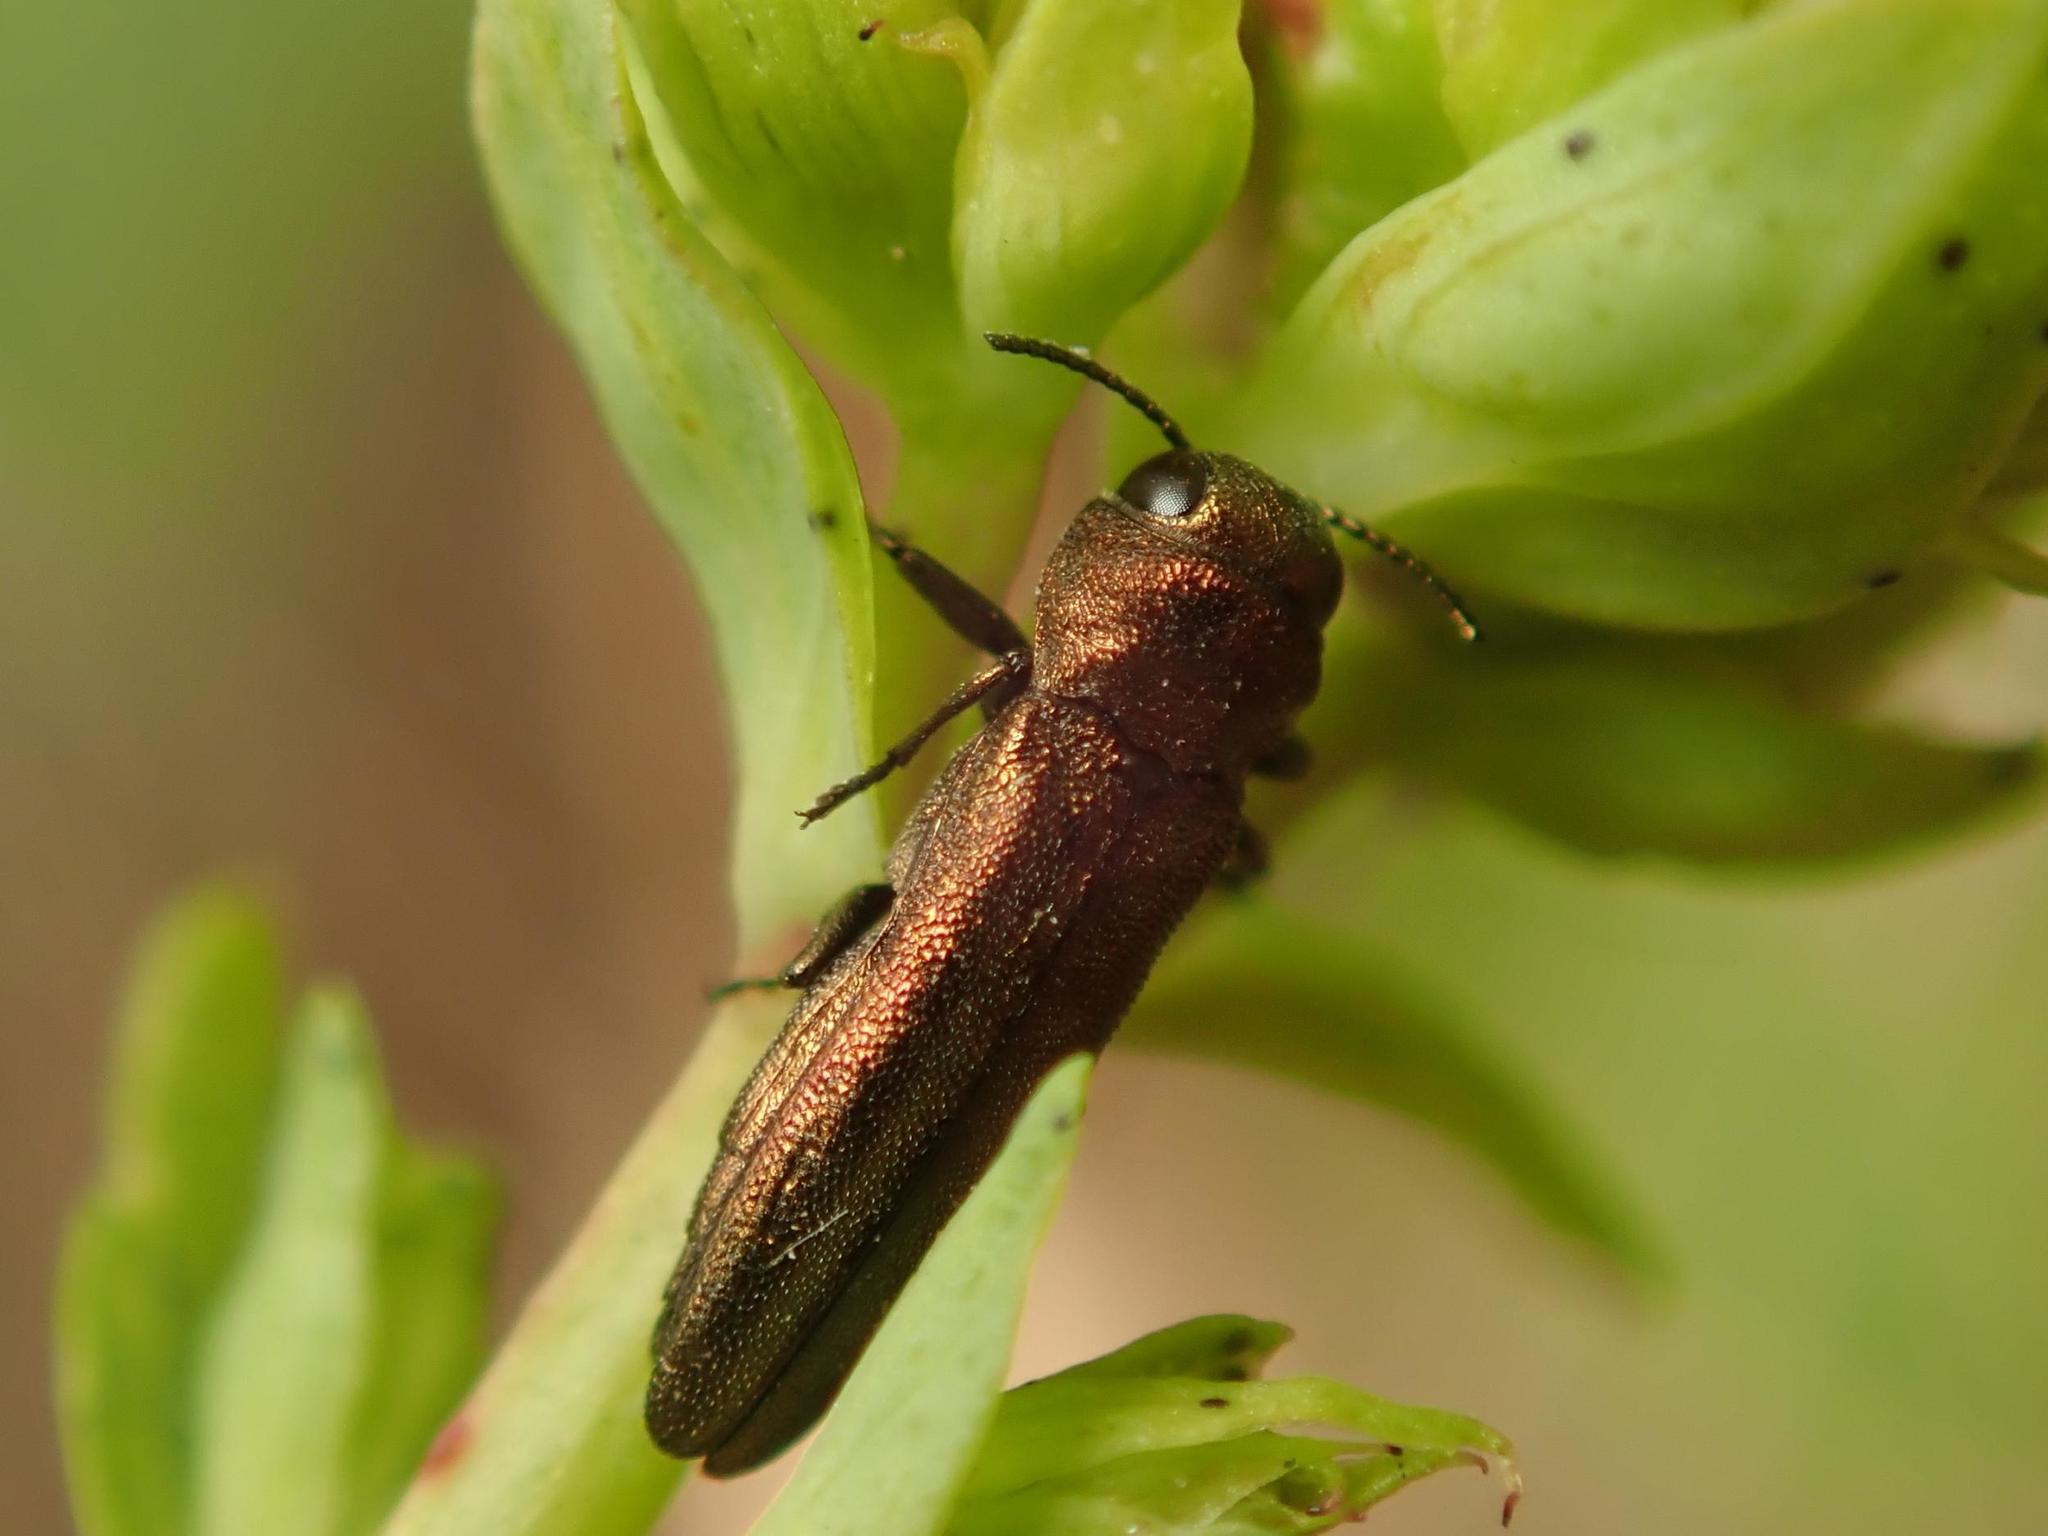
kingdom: Animalia
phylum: Arthropoda
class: Insecta
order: Coleoptera
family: Buprestidae
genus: Agrilus
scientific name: Agrilus hyperici
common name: St. john's wort root borer
